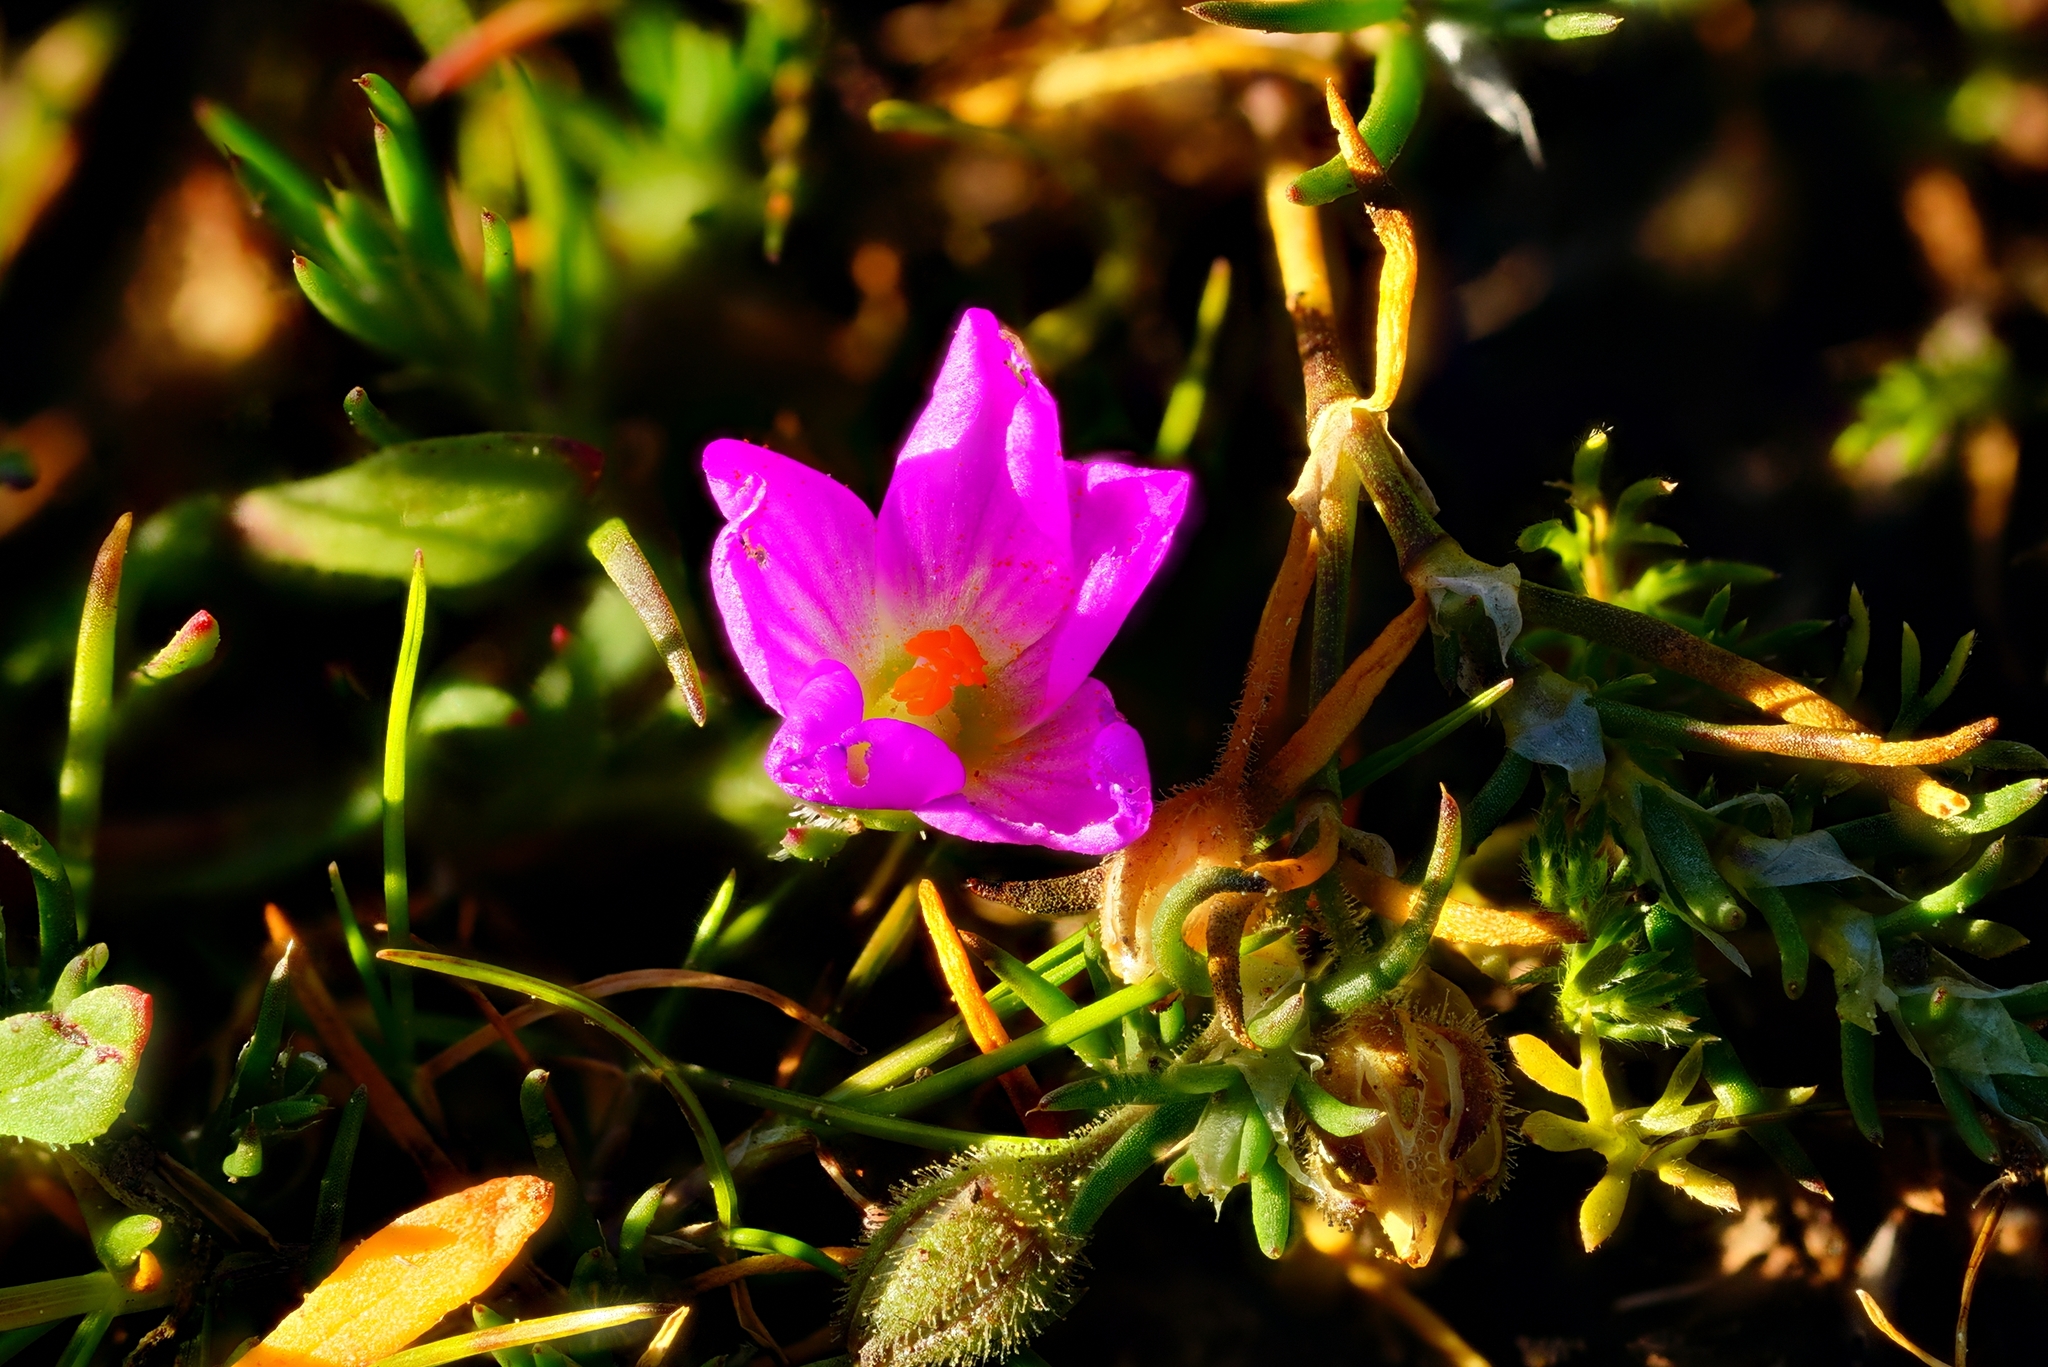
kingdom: Plantae
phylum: Tracheophyta
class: Magnoliopsida
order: Caryophyllales
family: Montiaceae
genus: Calandrinia
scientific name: Calandrinia menziesii
